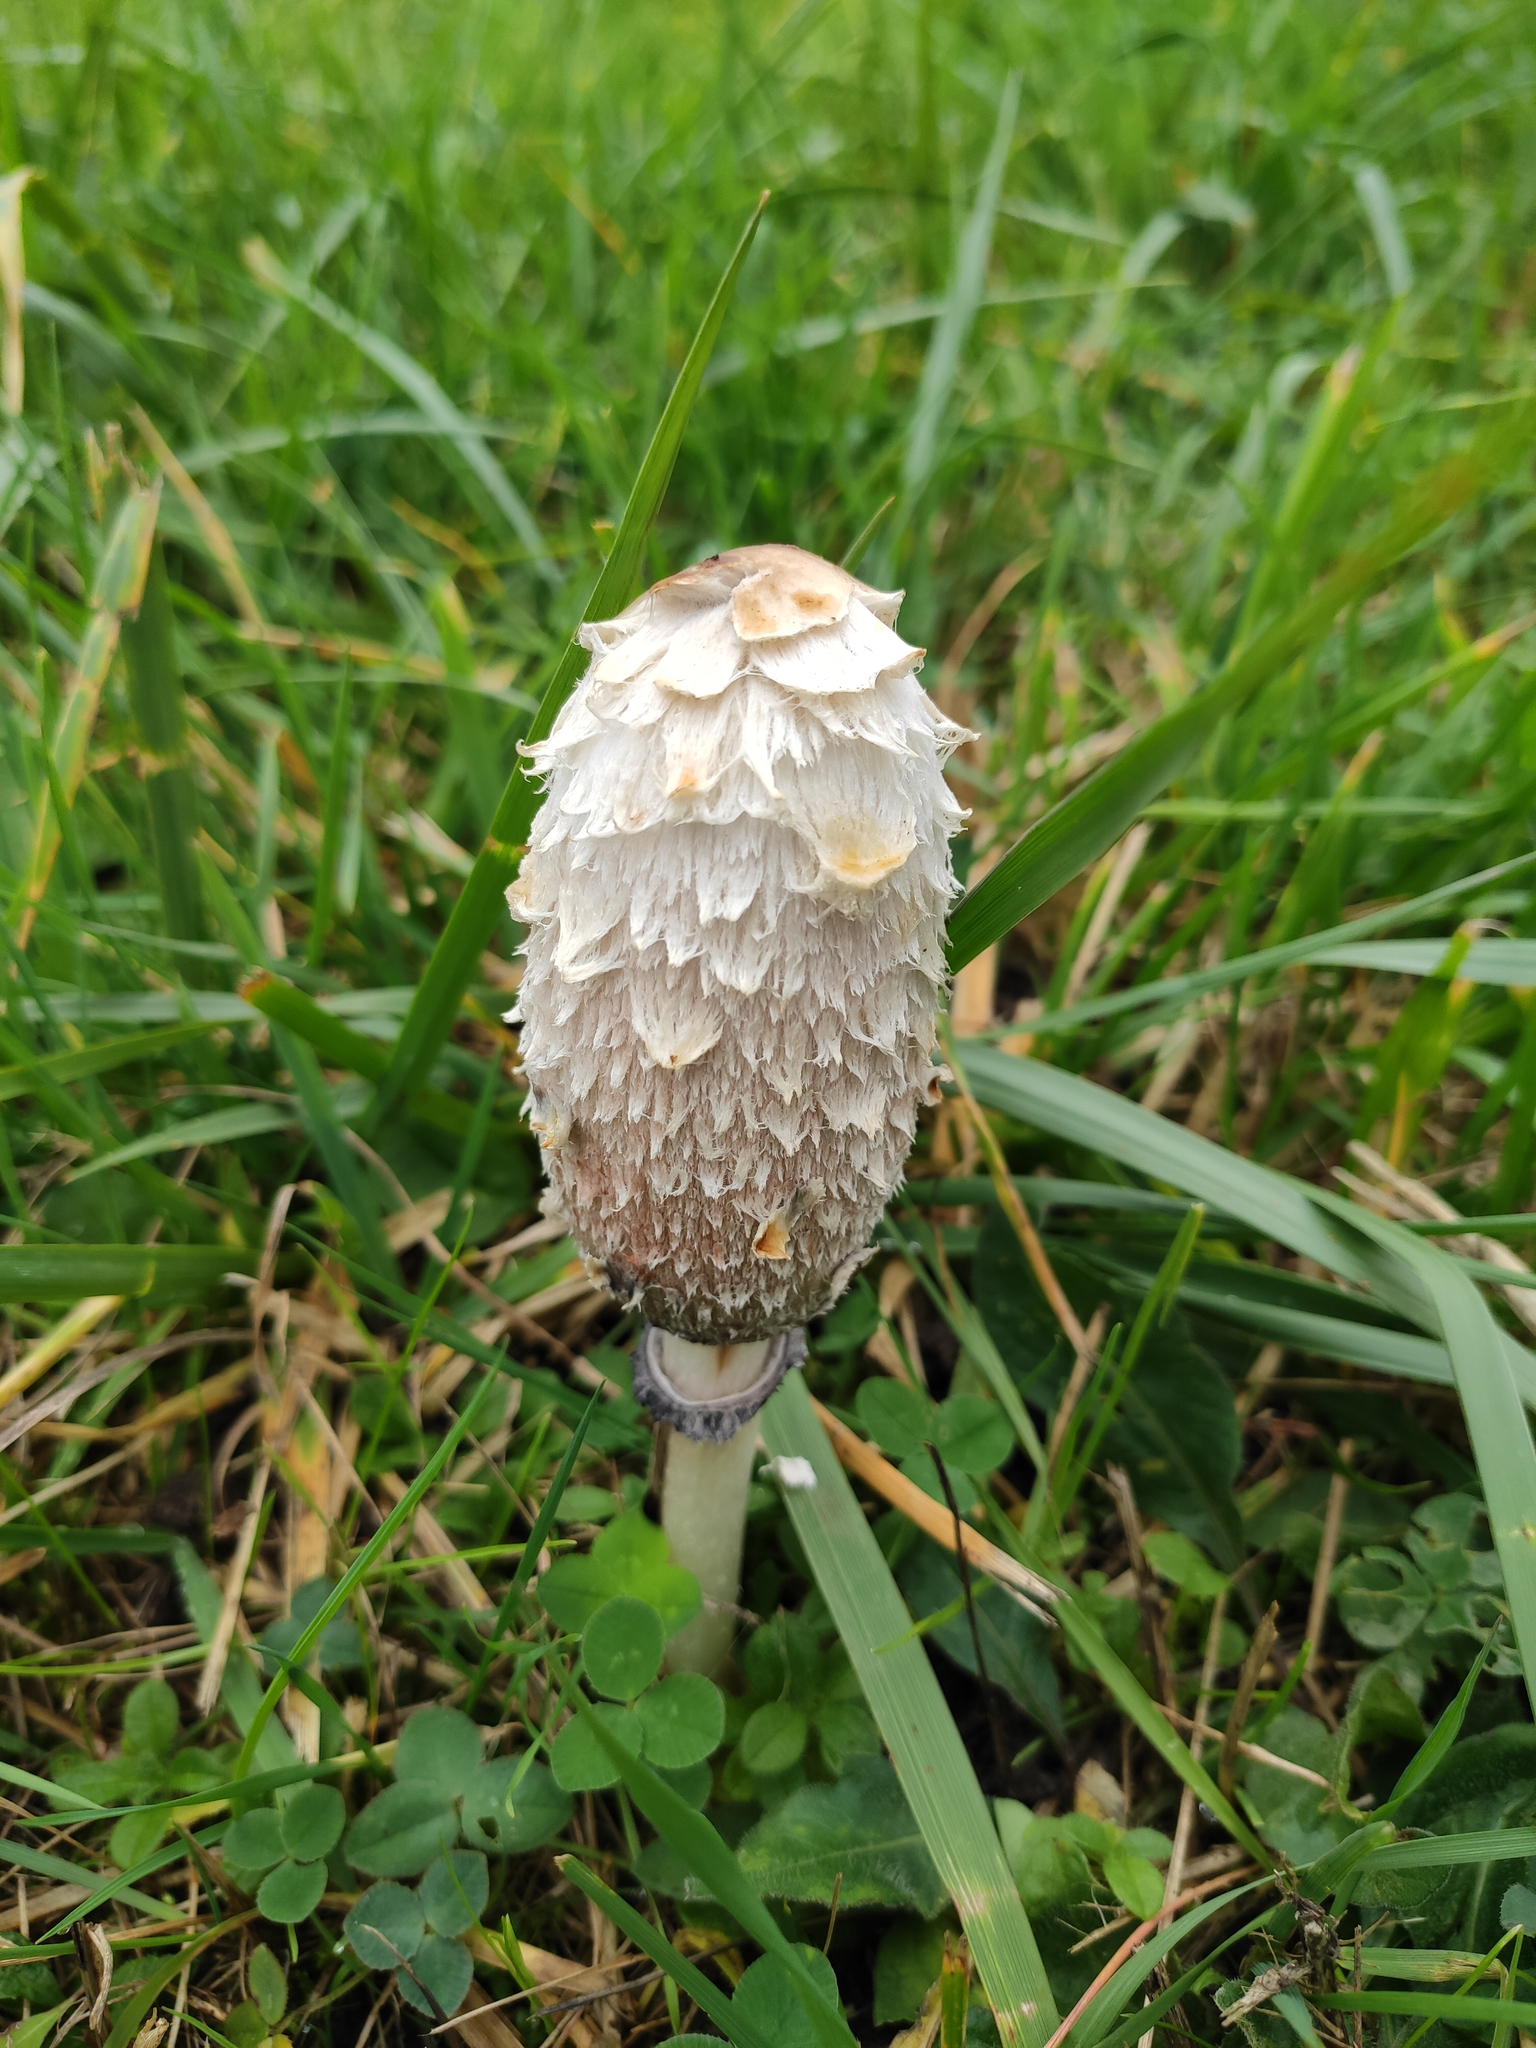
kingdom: Fungi
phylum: Basidiomycota
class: Agaricomycetes
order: Agaricales
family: Agaricaceae
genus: Coprinus
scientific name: Coprinus comatus
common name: Lawyer's wig
